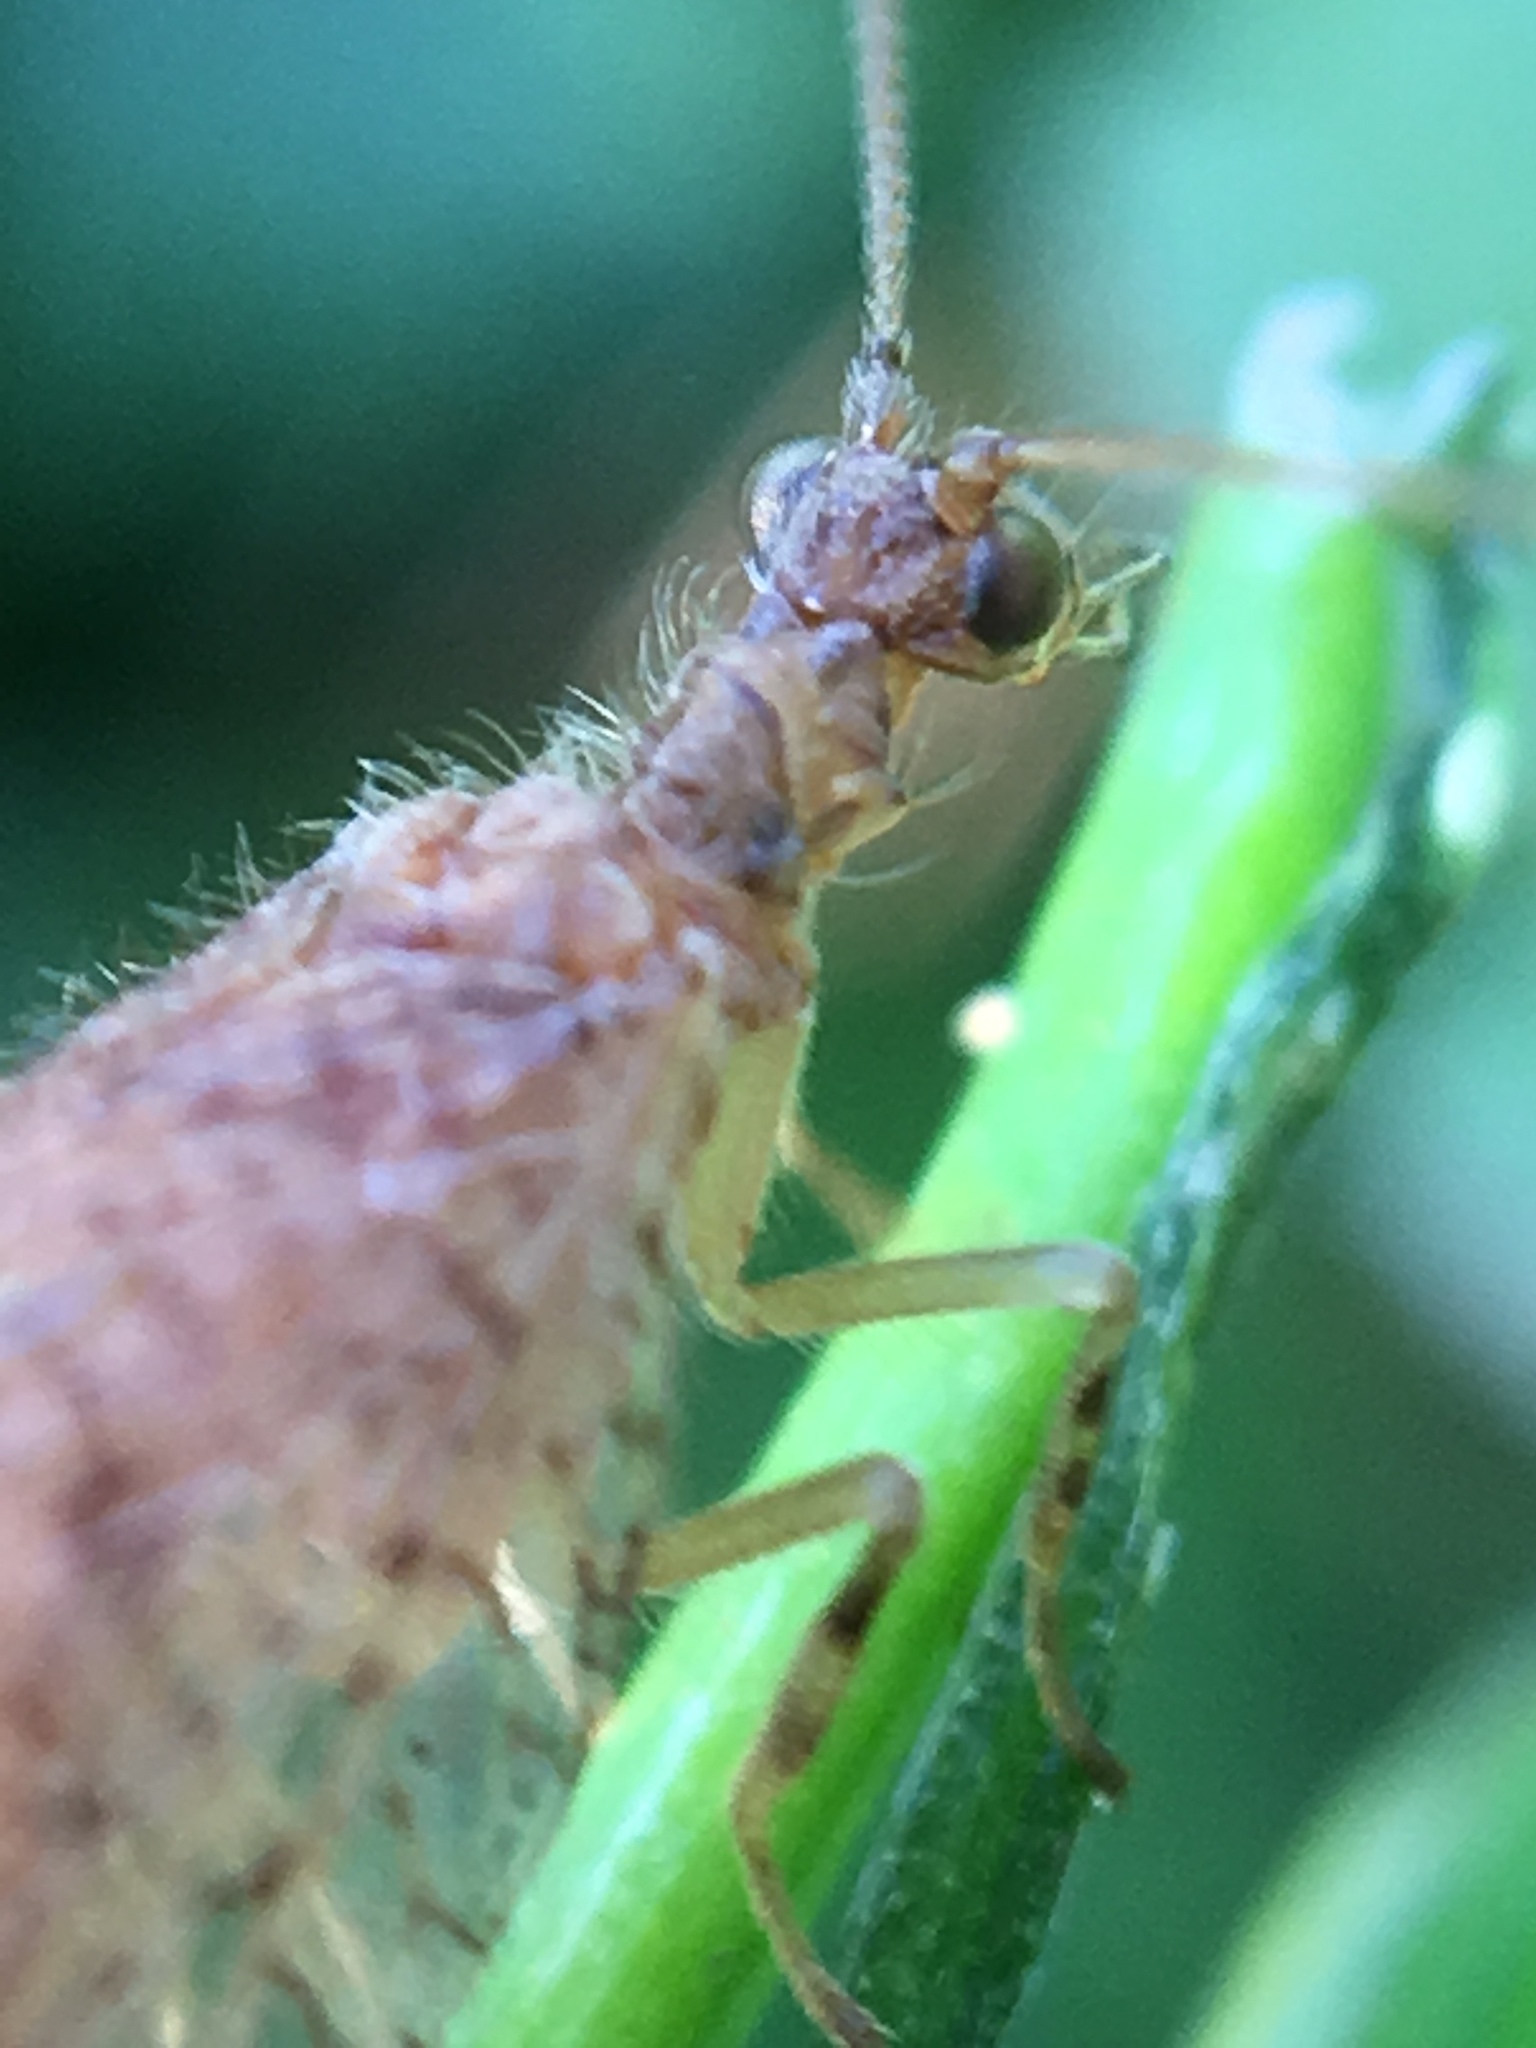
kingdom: Animalia
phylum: Arthropoda
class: Insecta
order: Neuroptera
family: Hemerobiidae
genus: Micromus
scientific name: Micromus posticus
